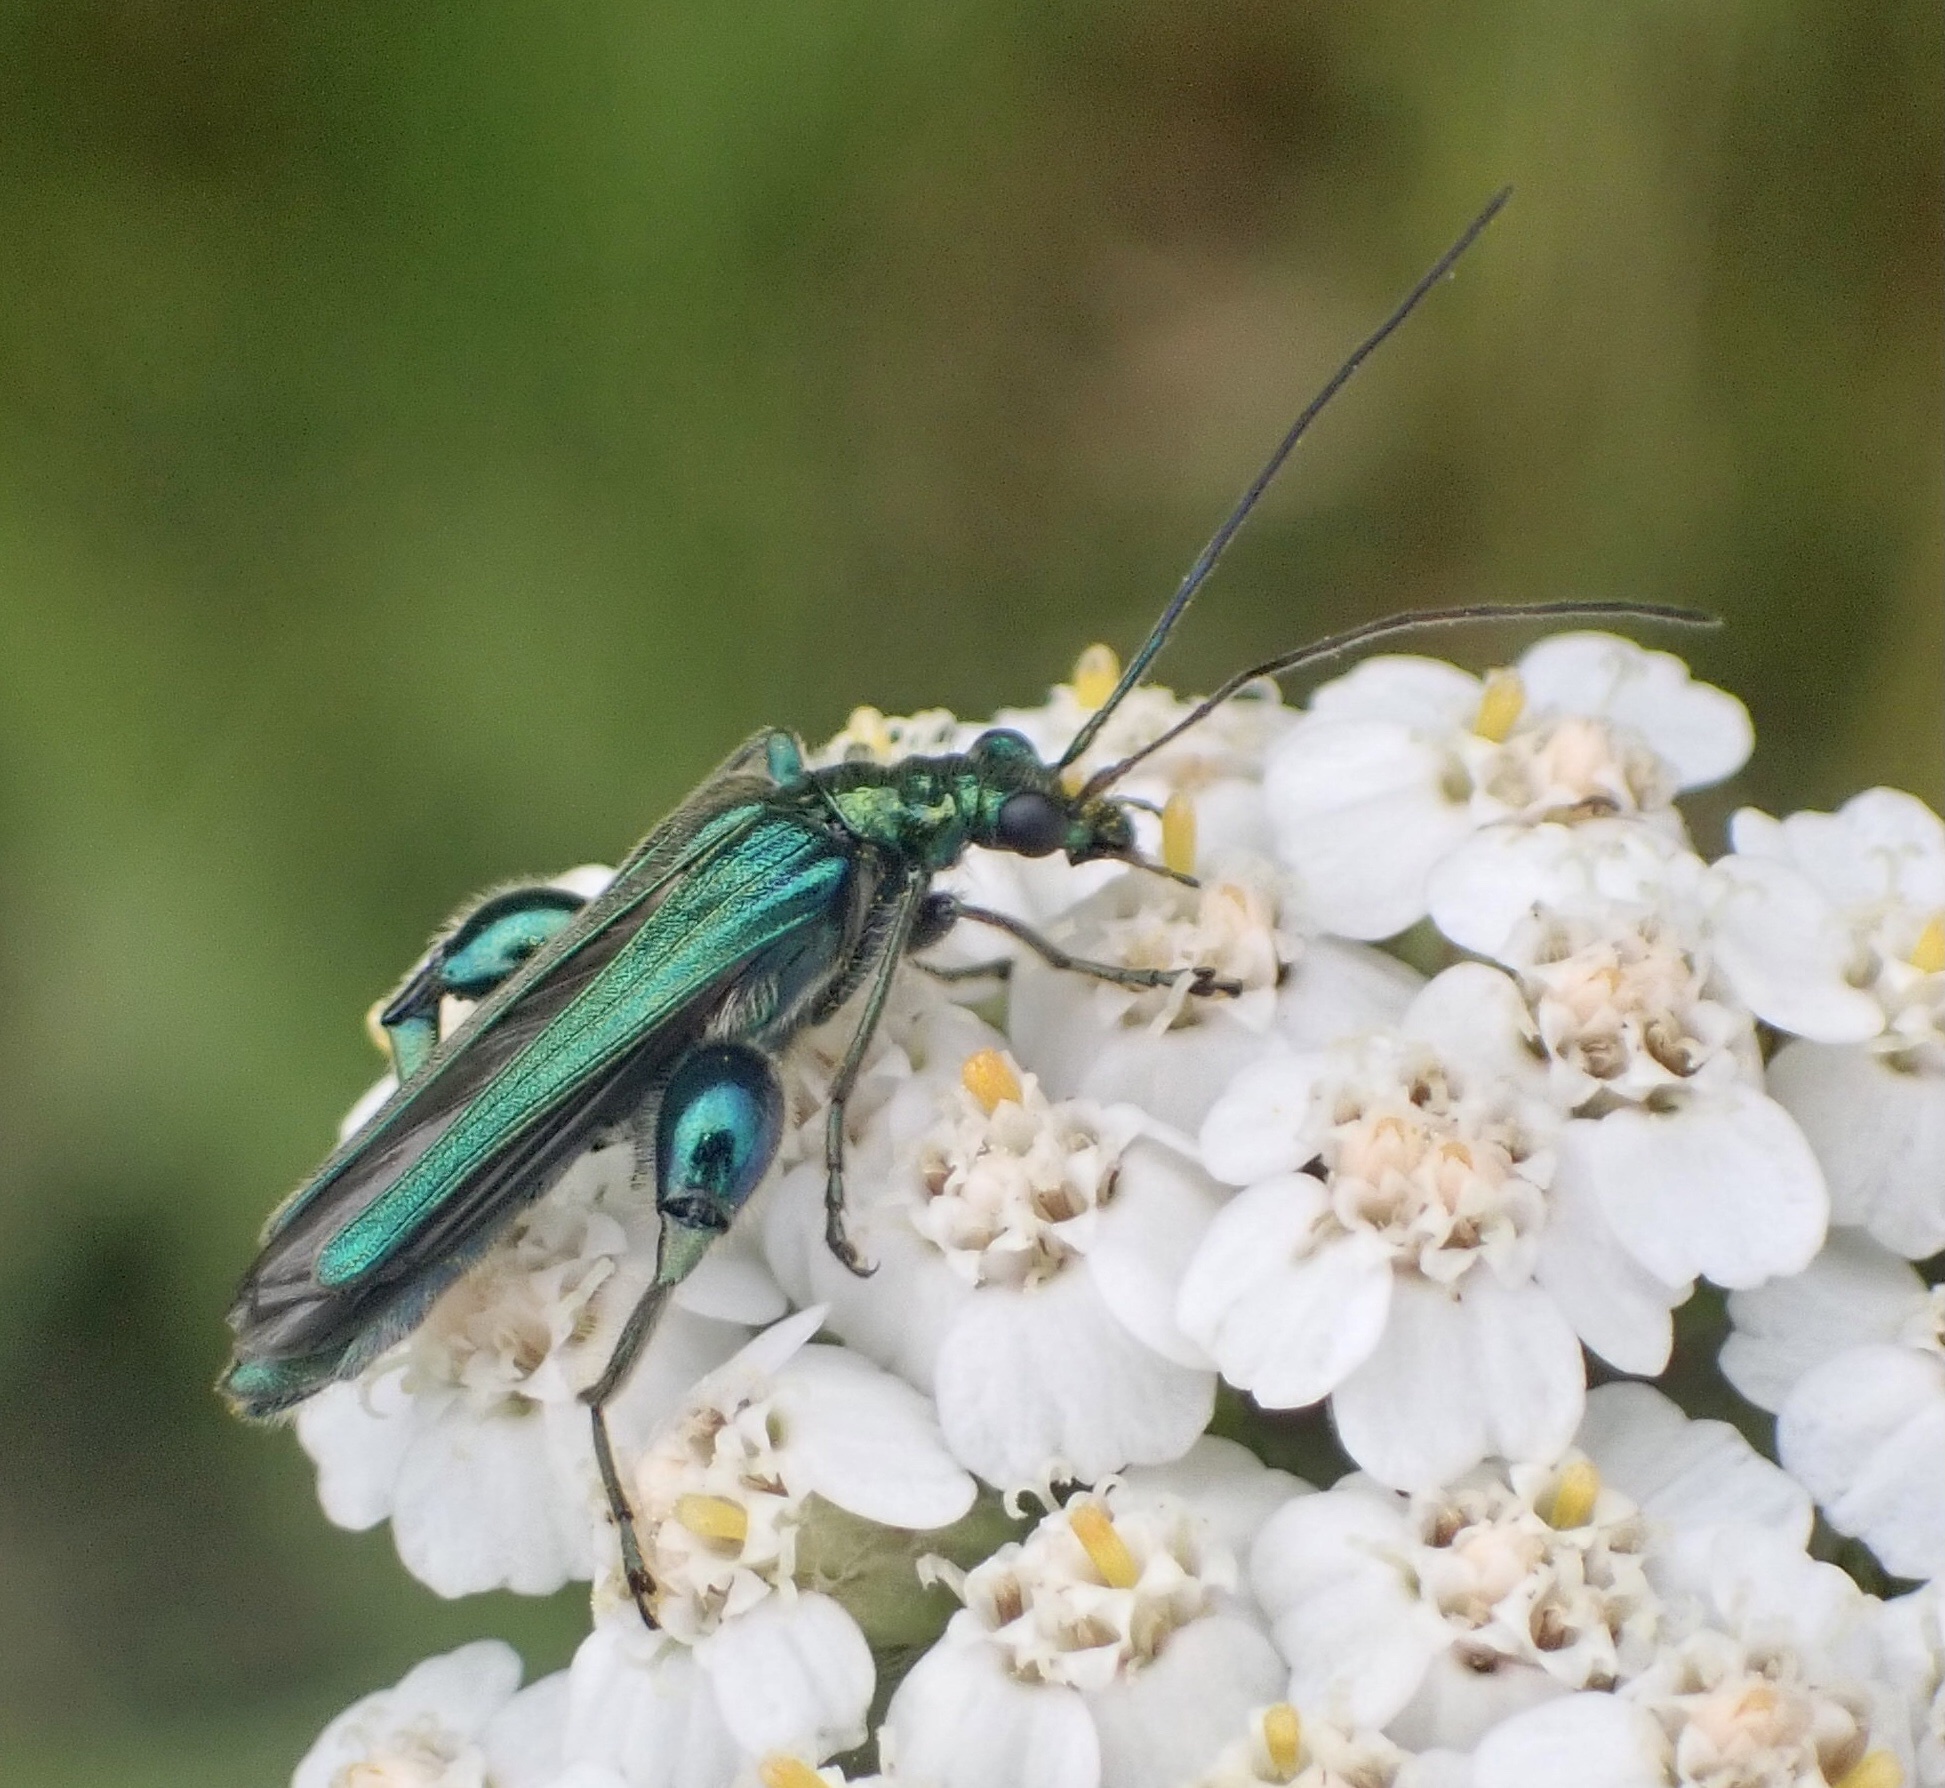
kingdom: Animalia
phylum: Arthropoda
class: Insecta
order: Coleoptera
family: Oedemeridae
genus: Oedemera
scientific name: Oedemera nobilis
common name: Swollen-thighed beetle
